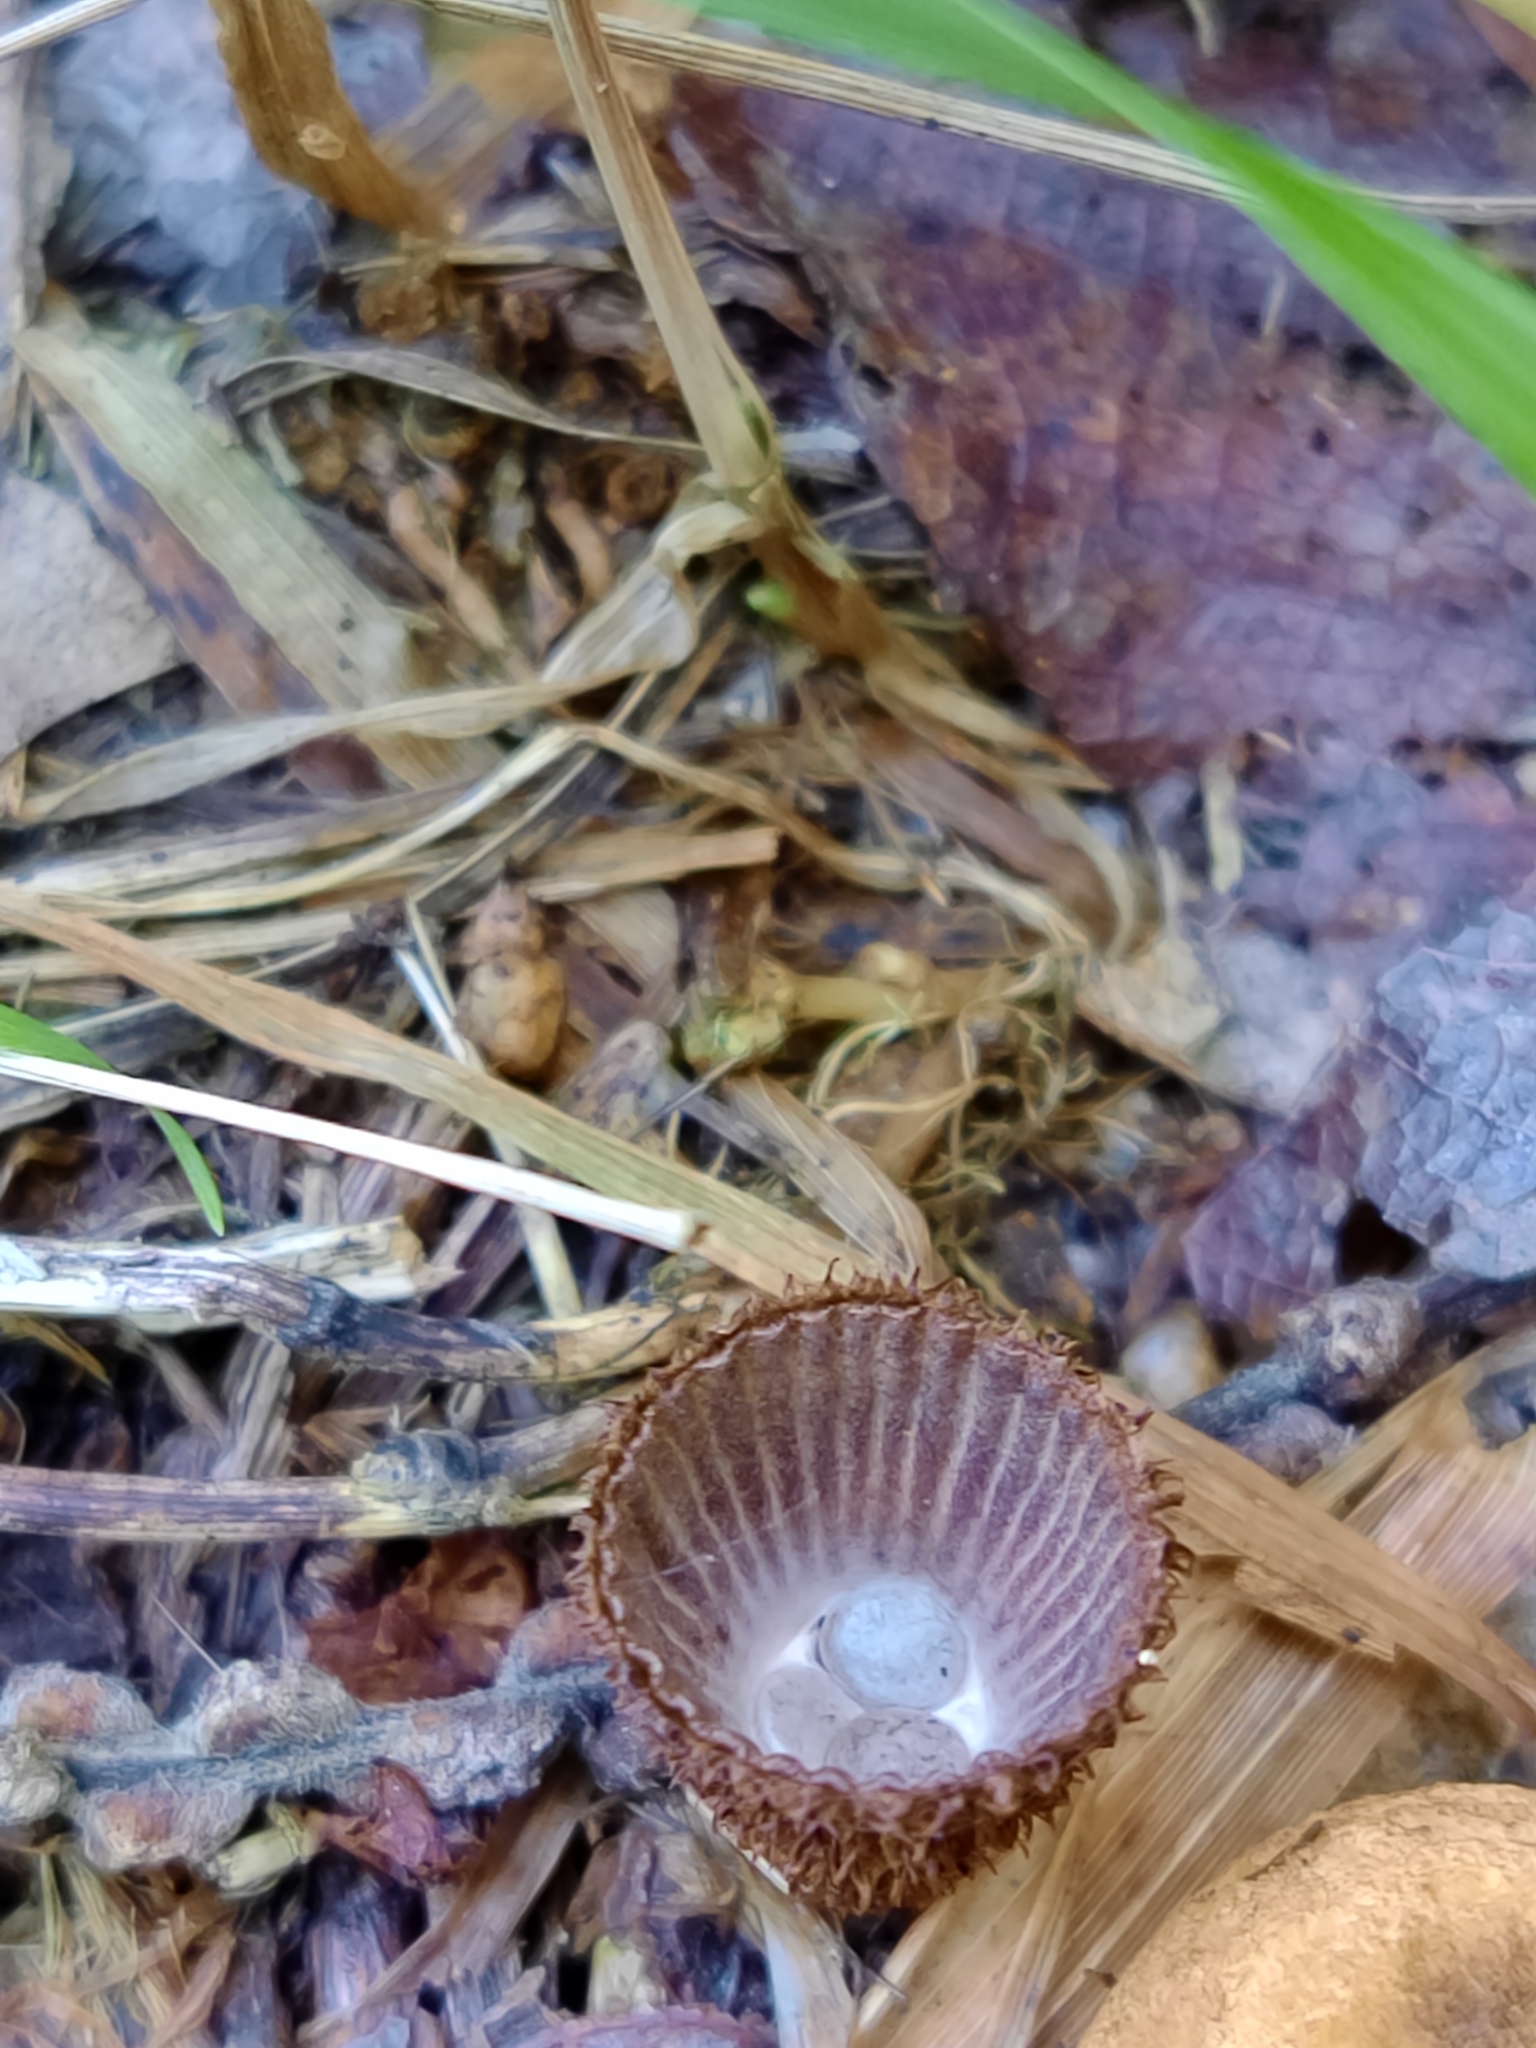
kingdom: Fungi
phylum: Basidiomycota
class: Agaricomycetes
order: Agaricales
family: Agaricaceae
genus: Cyathus
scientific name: Cyathus striatus
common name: Fluted bird's nest
